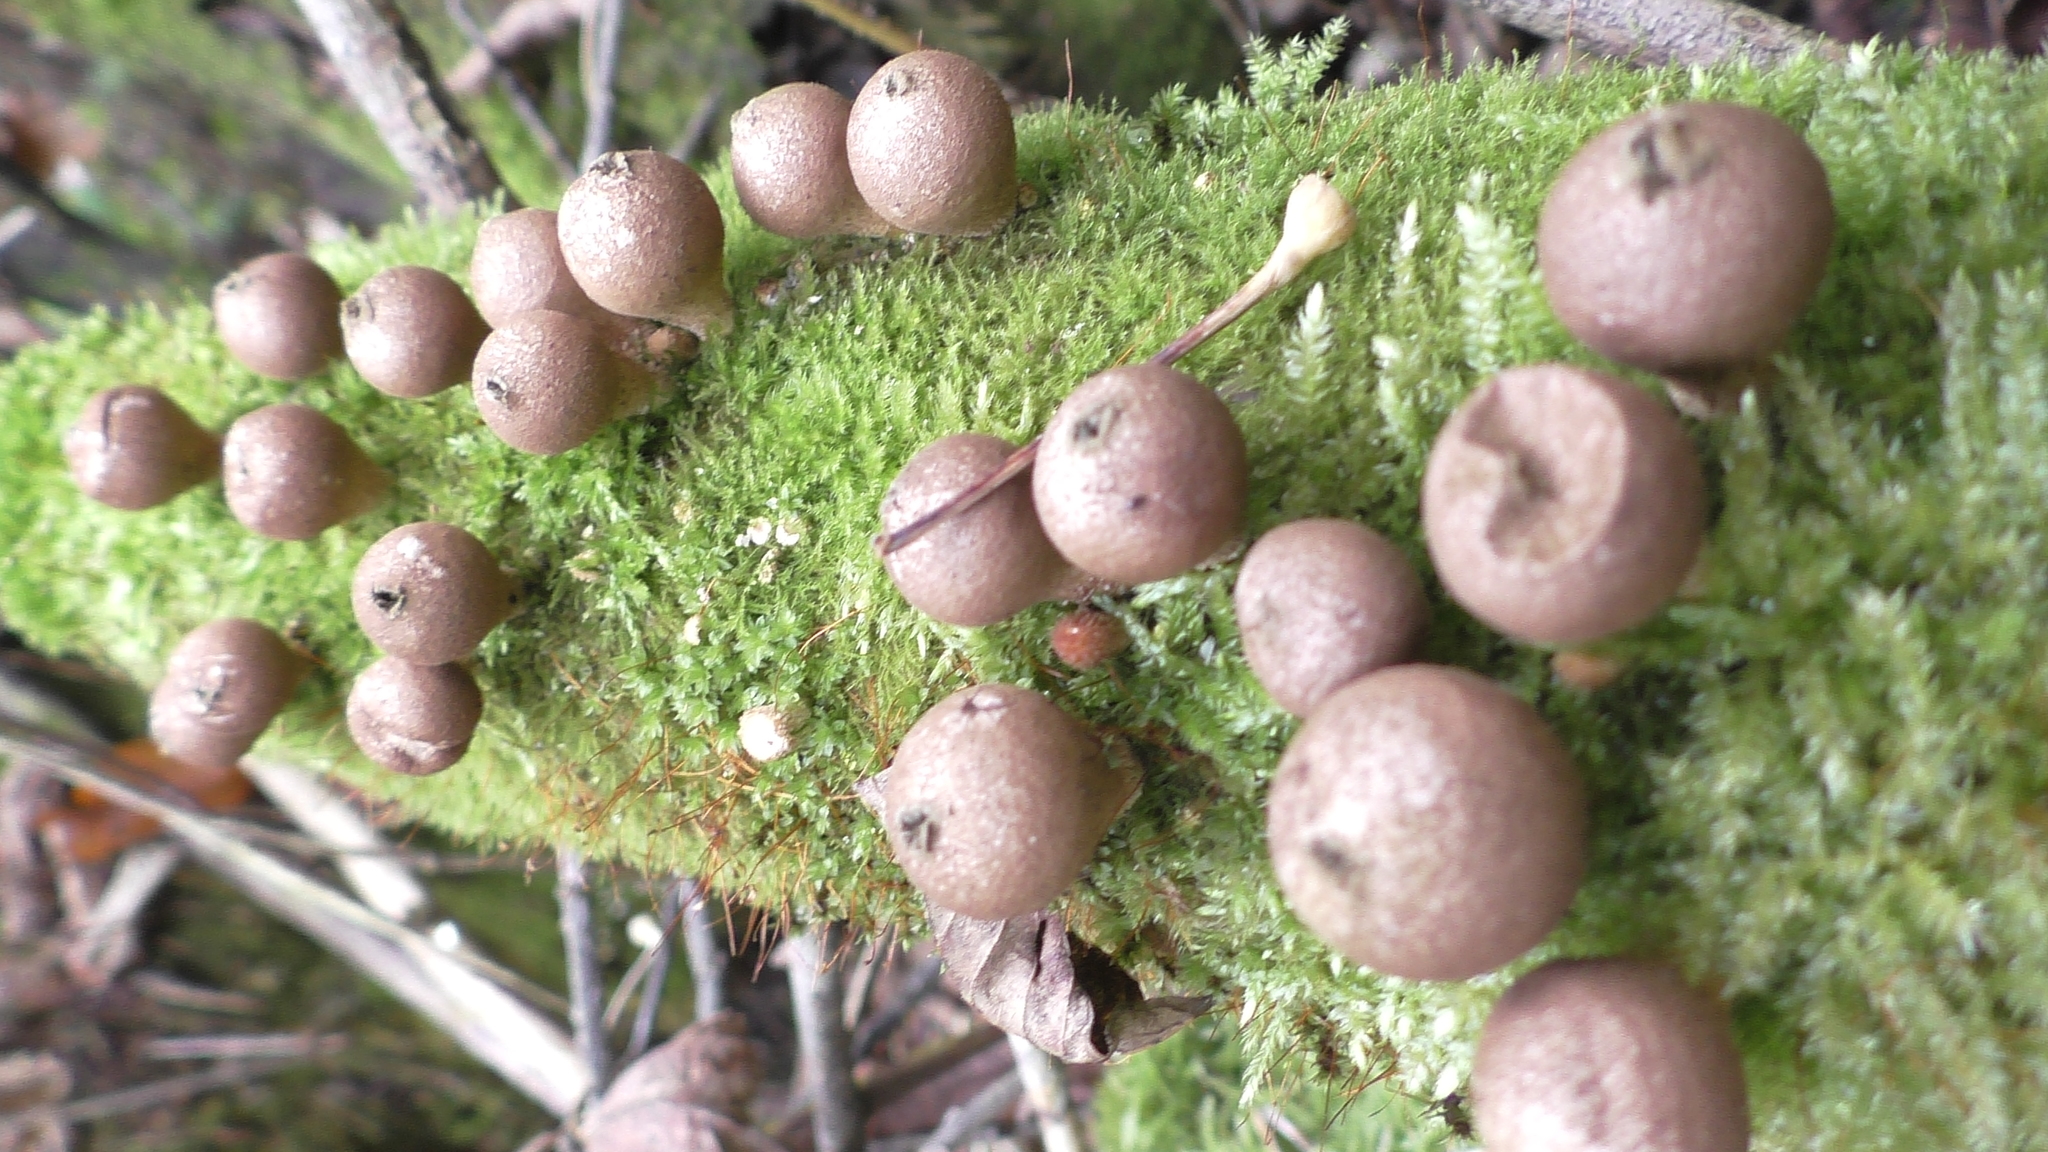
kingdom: Fungi
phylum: Basidiomycota
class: Agaricomycetes
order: Agaricales
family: Lycoperdaceae
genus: Apioperdon
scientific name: Apioperdon pyriforme
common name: Pear-shaped puffball
